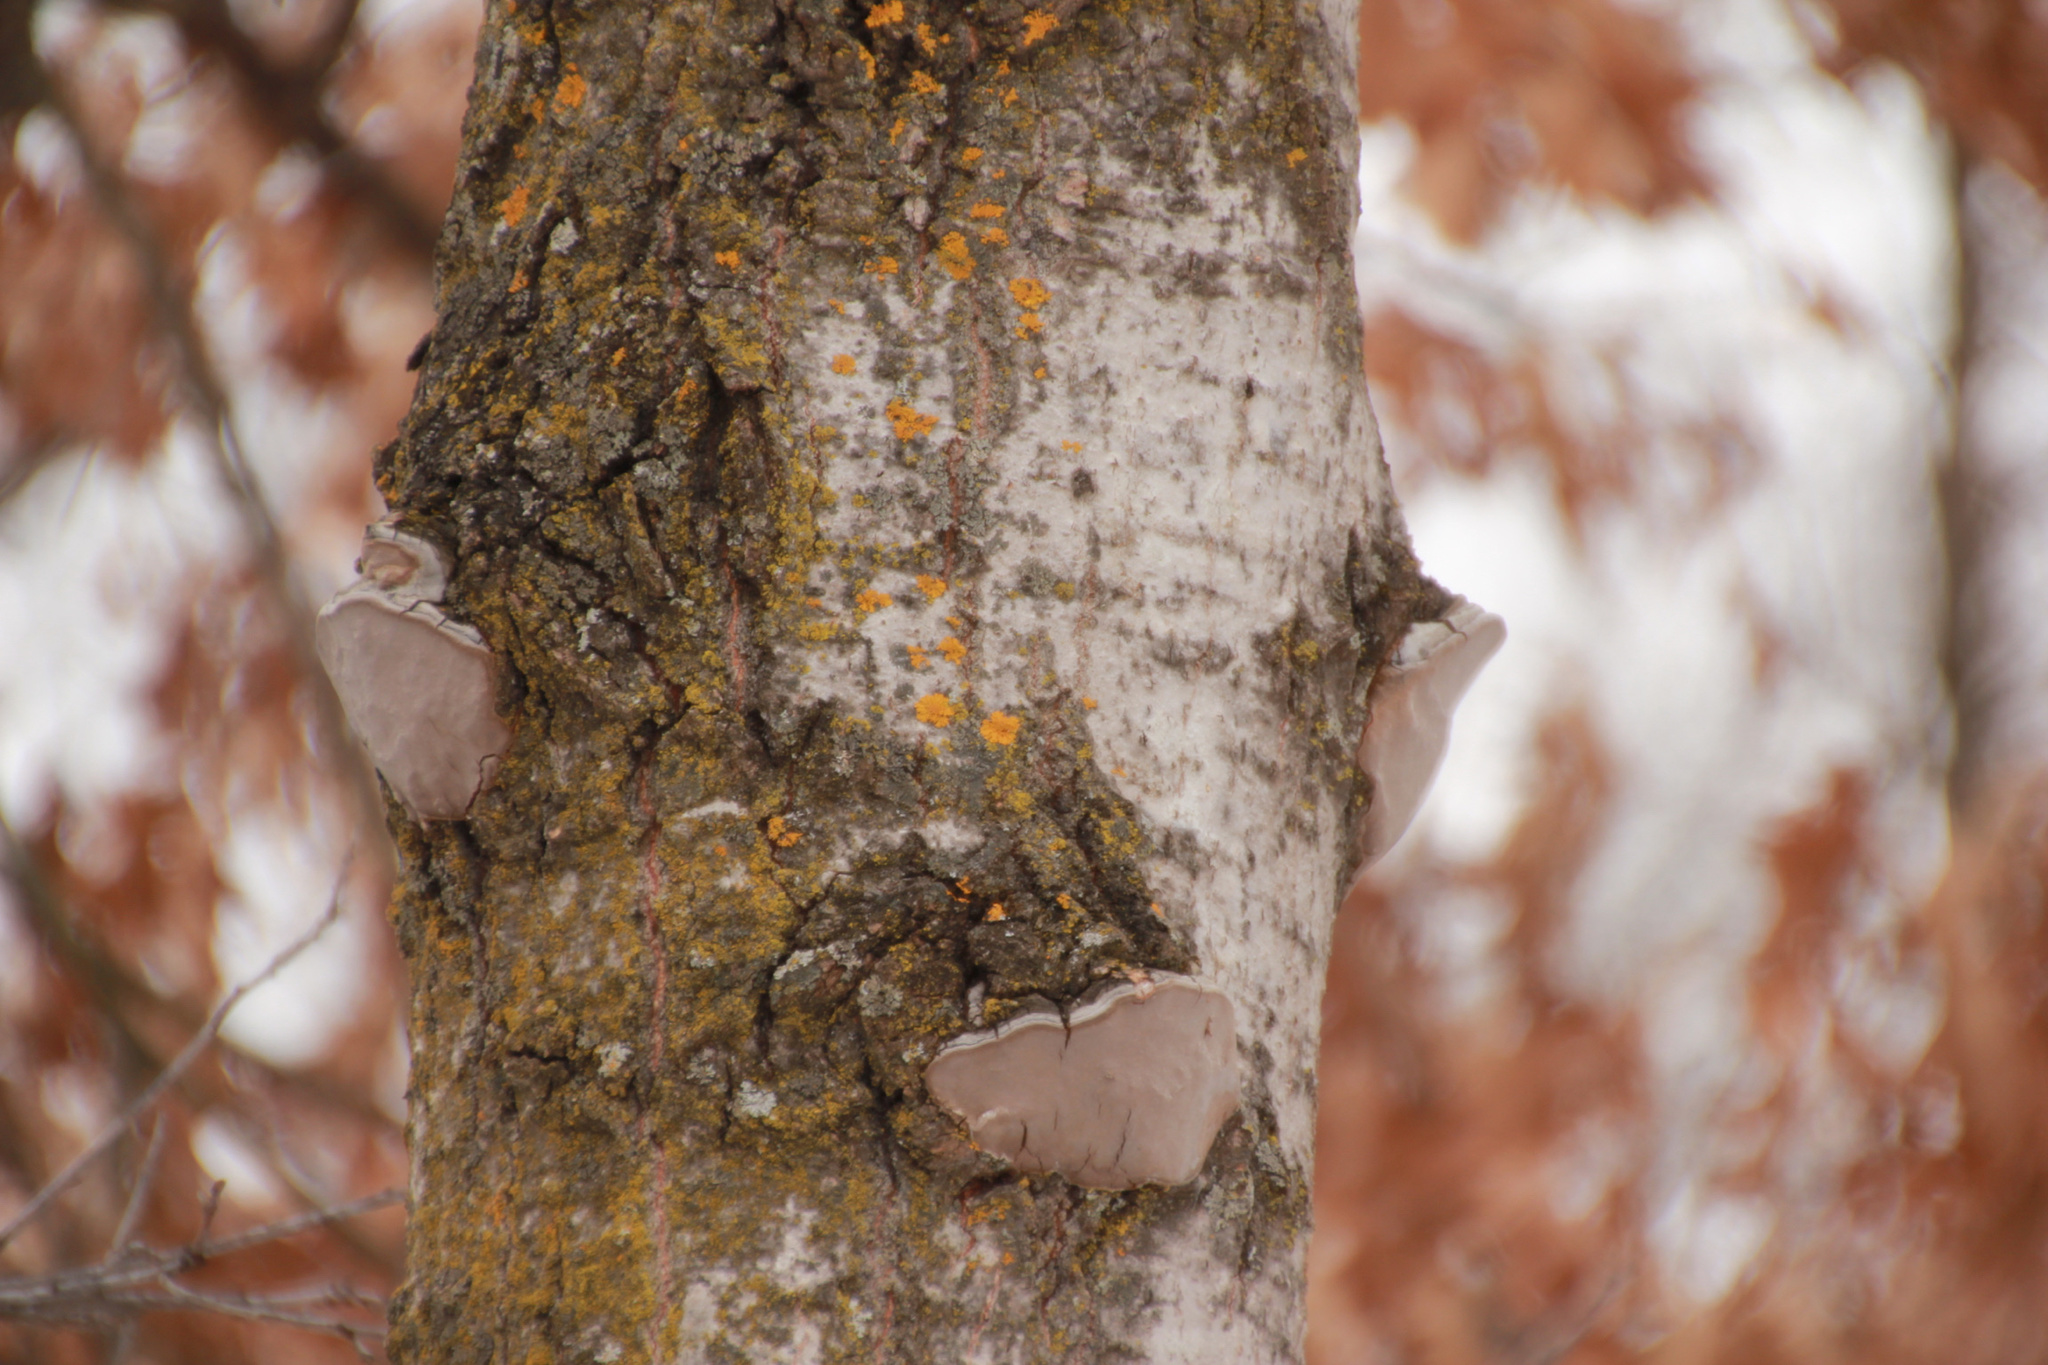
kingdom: Fungi
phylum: Basidiomycota
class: Agaricomycetes
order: Hymenochaetales
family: Hymenochaetaceae
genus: Phellinus
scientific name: Phellinus tremulae
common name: Aspen bracket
